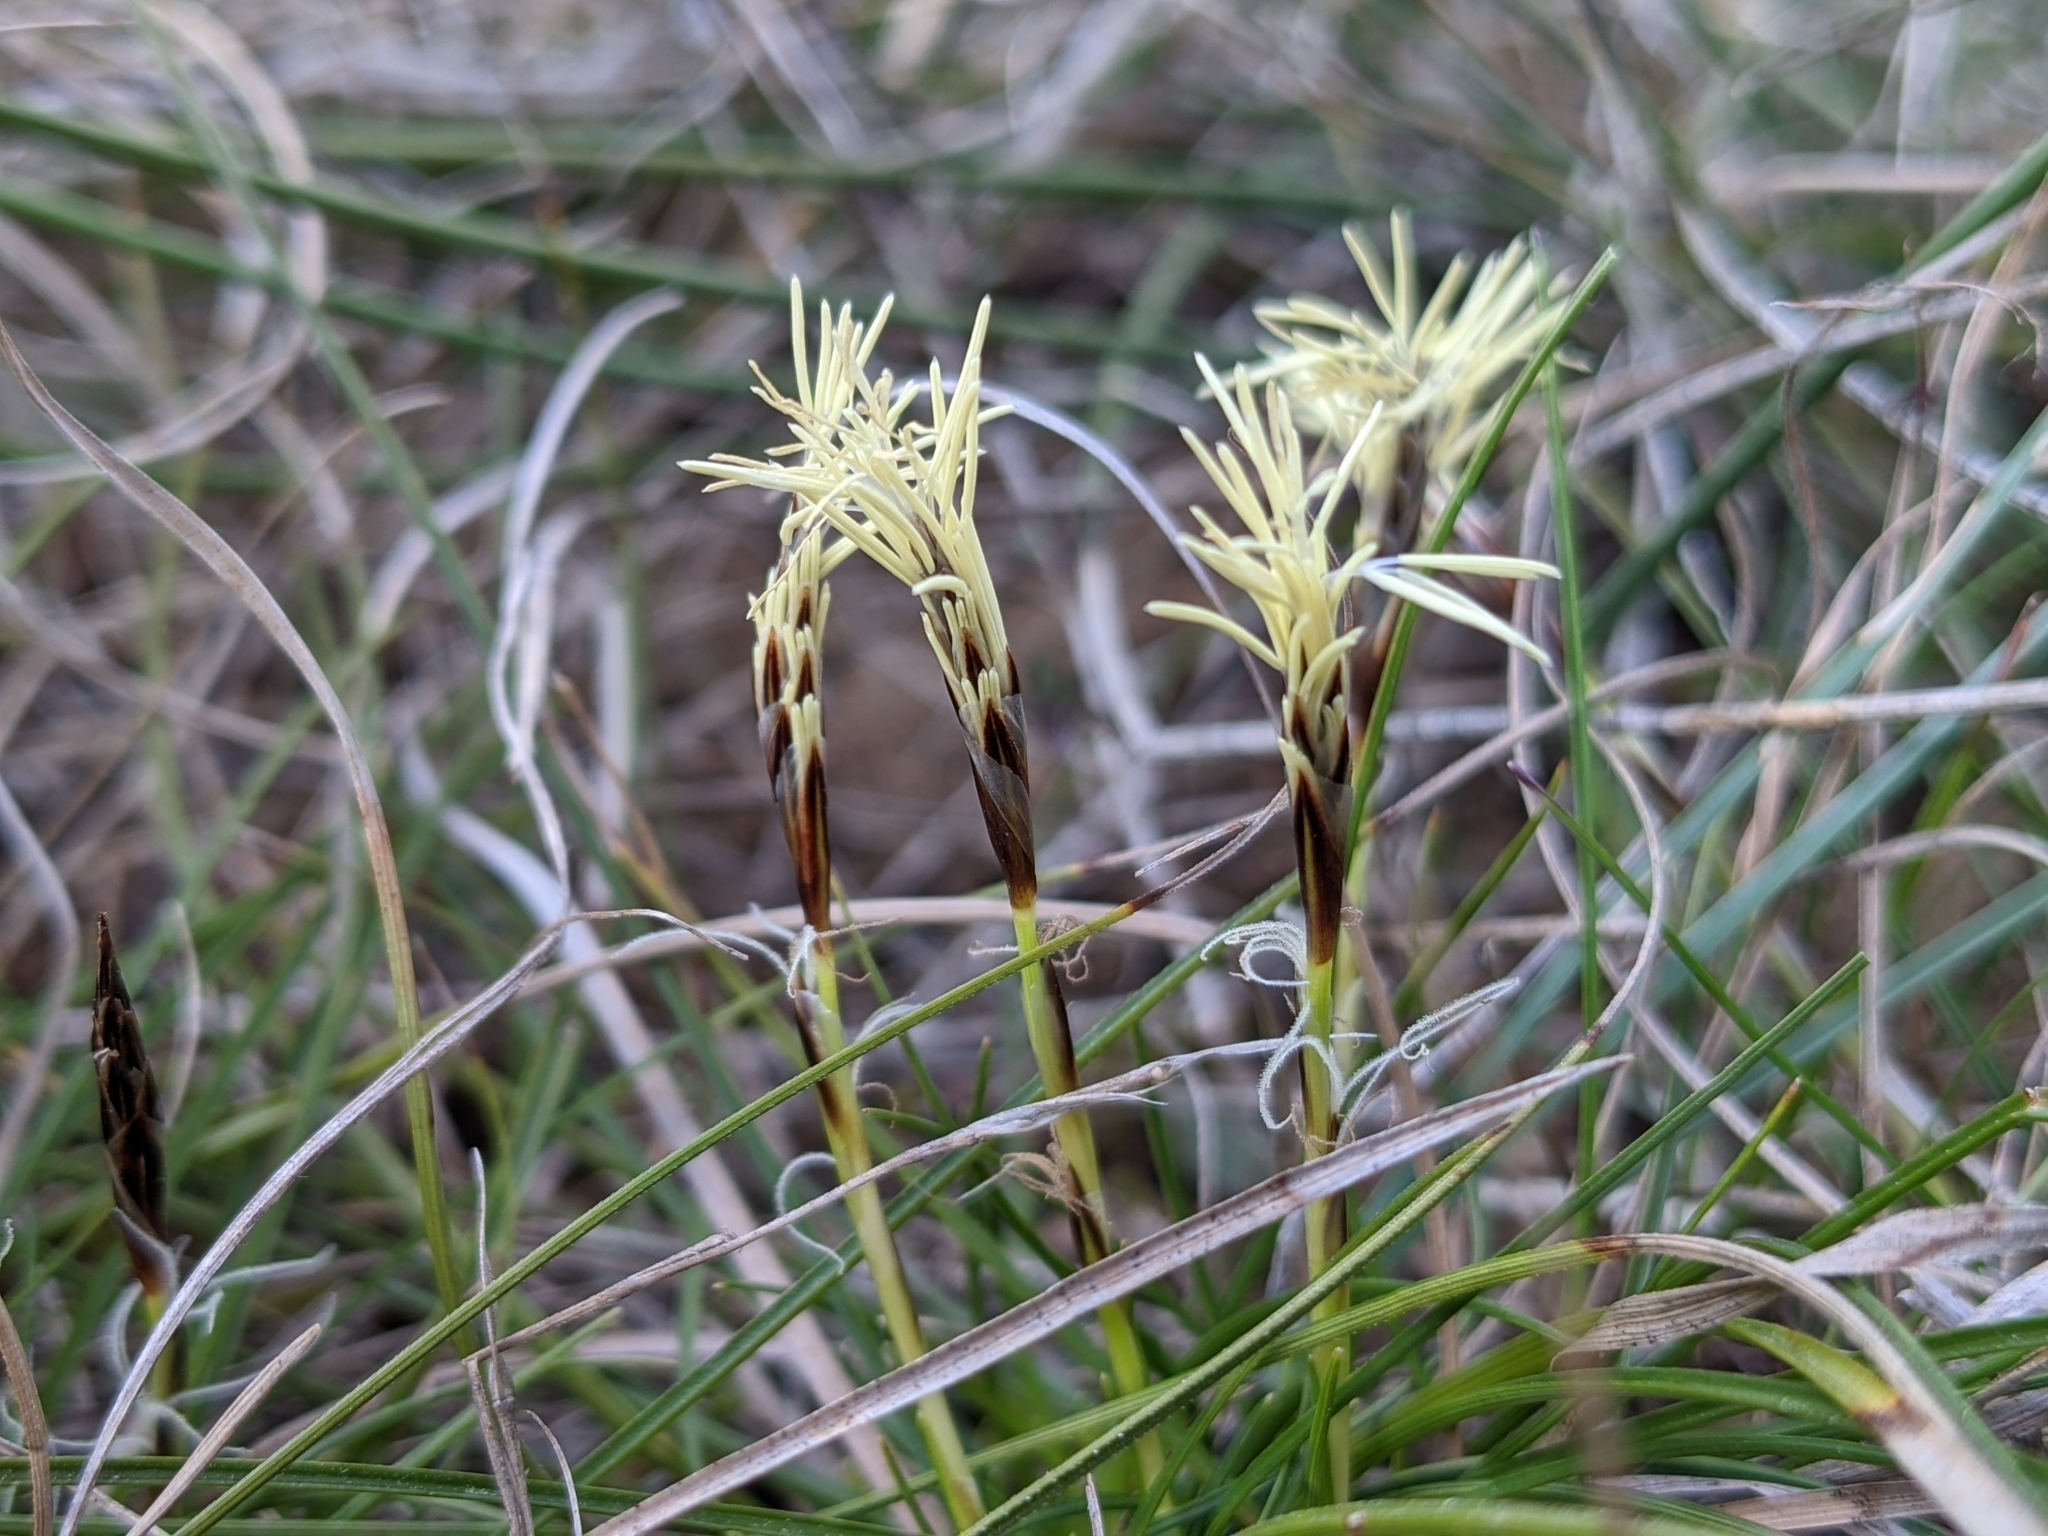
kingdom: Plantae
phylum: Tracheophyta
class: Liliopsida
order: Poales
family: Cyperaceae
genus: Carex
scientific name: Carex halleriana
